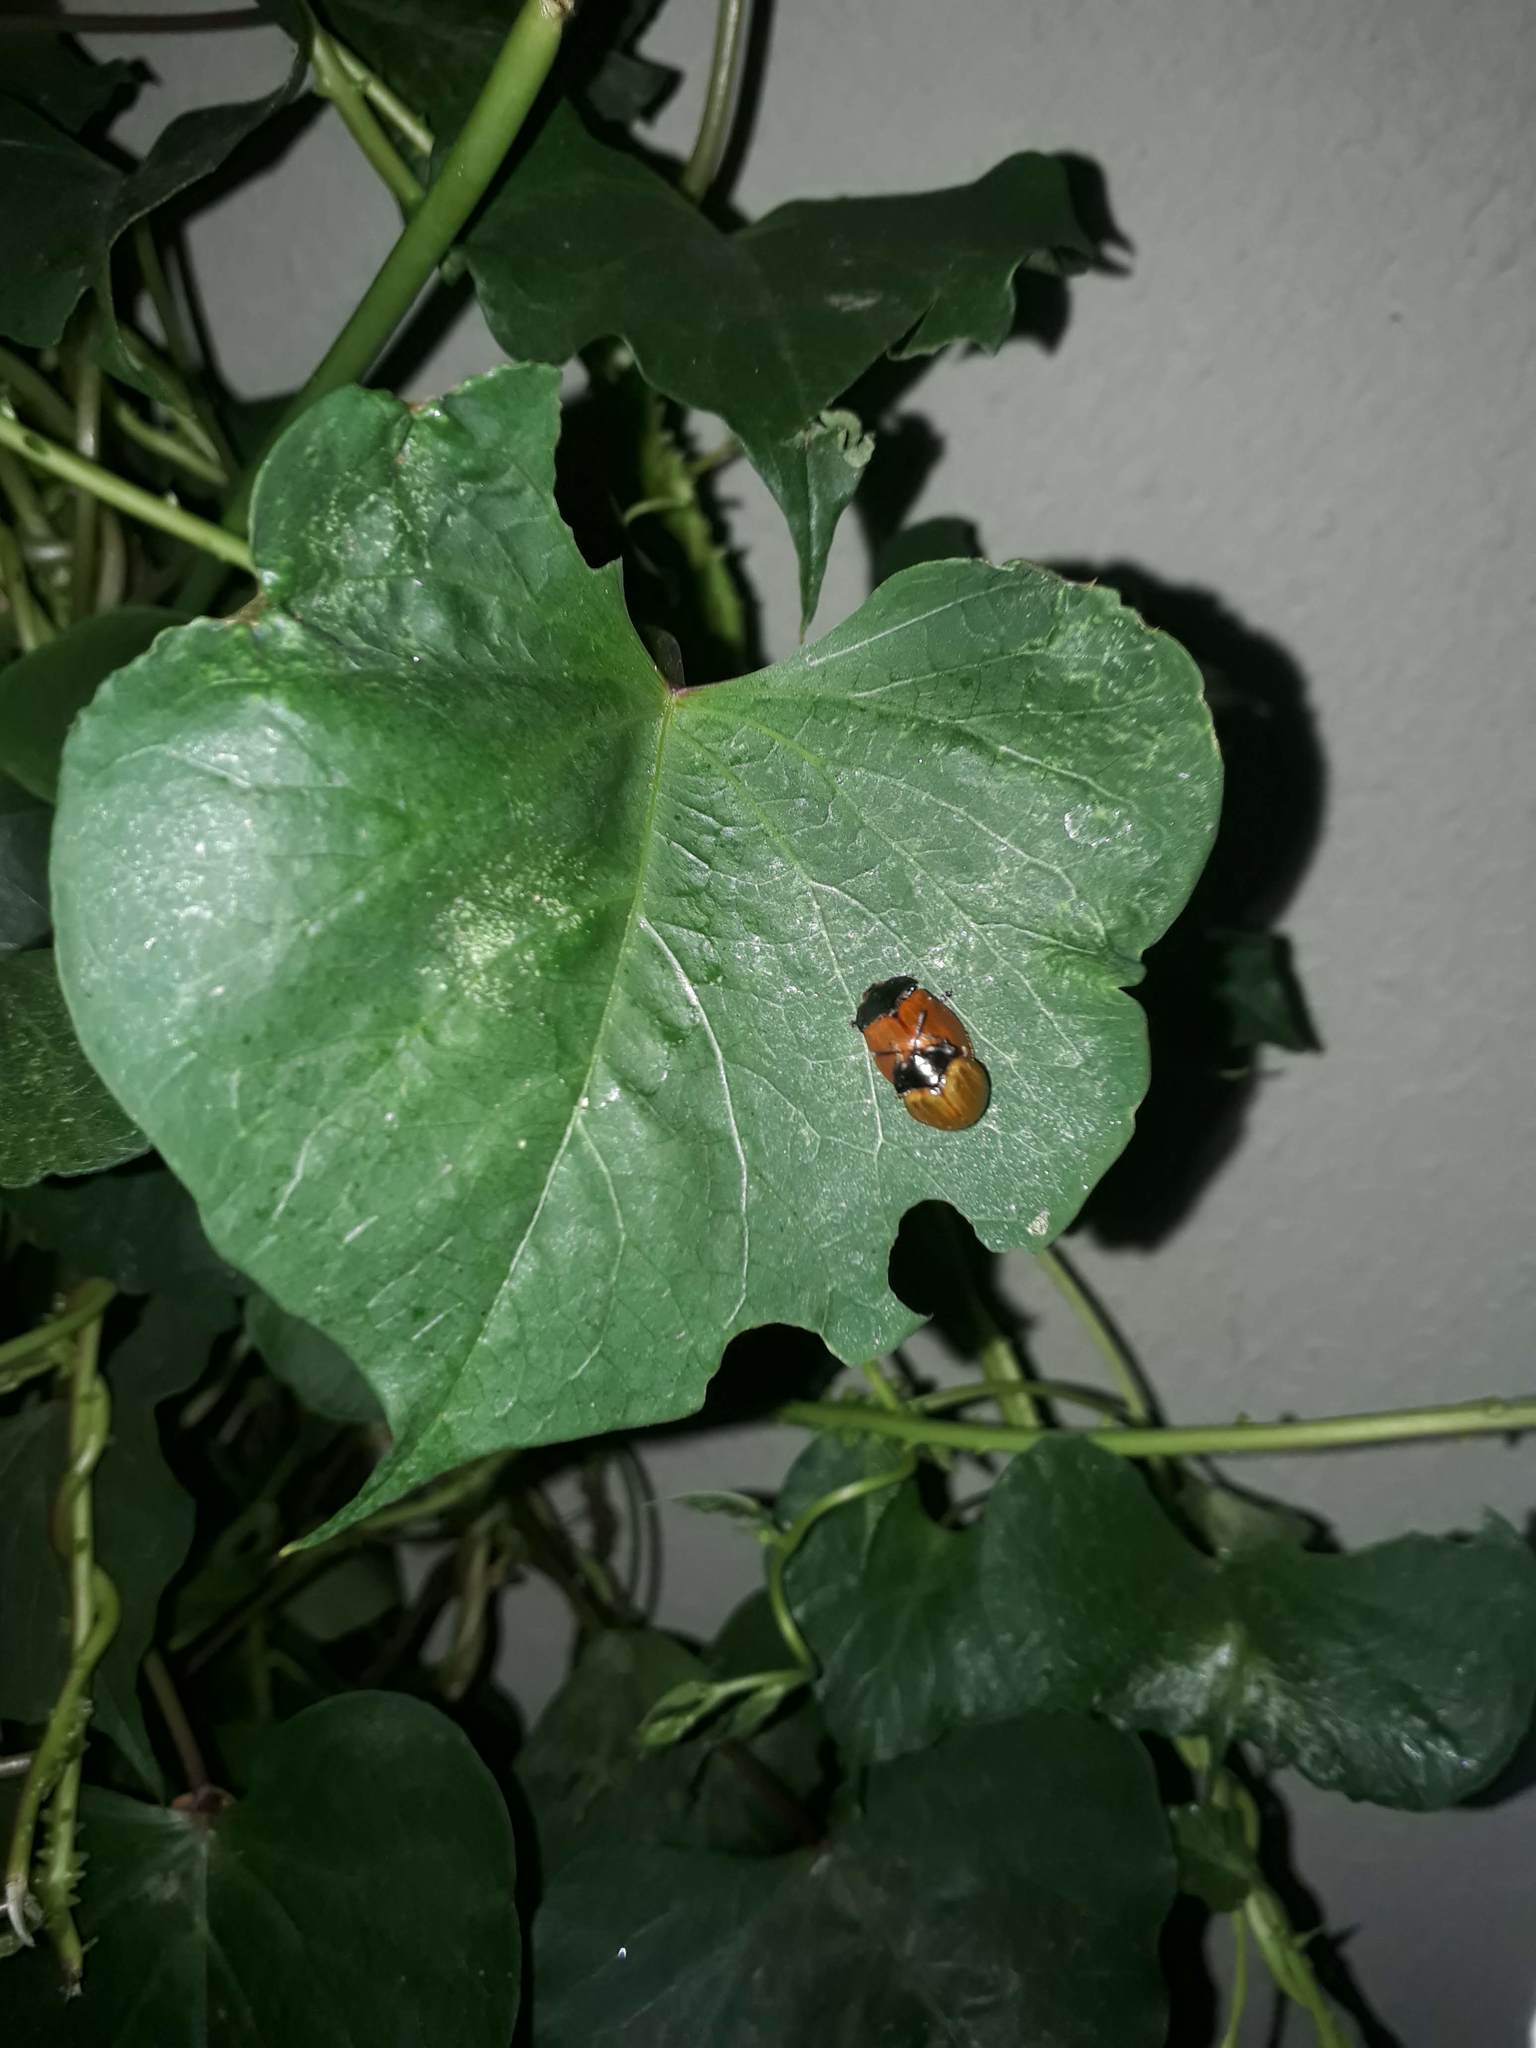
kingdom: Animalia
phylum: Arthropoda
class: Insecta
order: Coleoptera
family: Chrysomelidae
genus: Chelymorpha
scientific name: Chelymorpha cribraria
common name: Tortoise beetle
